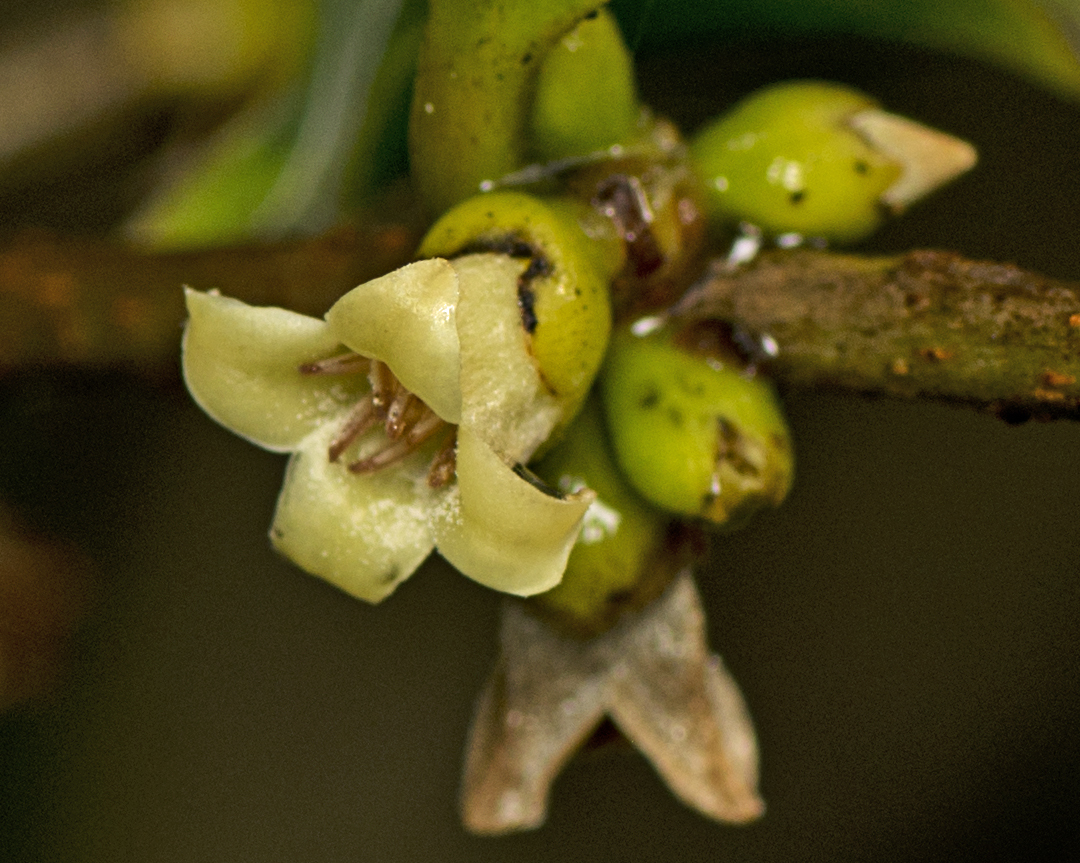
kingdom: Plantae
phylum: Tracheophyta
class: Magnoliopsida
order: Ericales
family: Ebenaceae
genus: Diospyros
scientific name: Diospyros geminata
